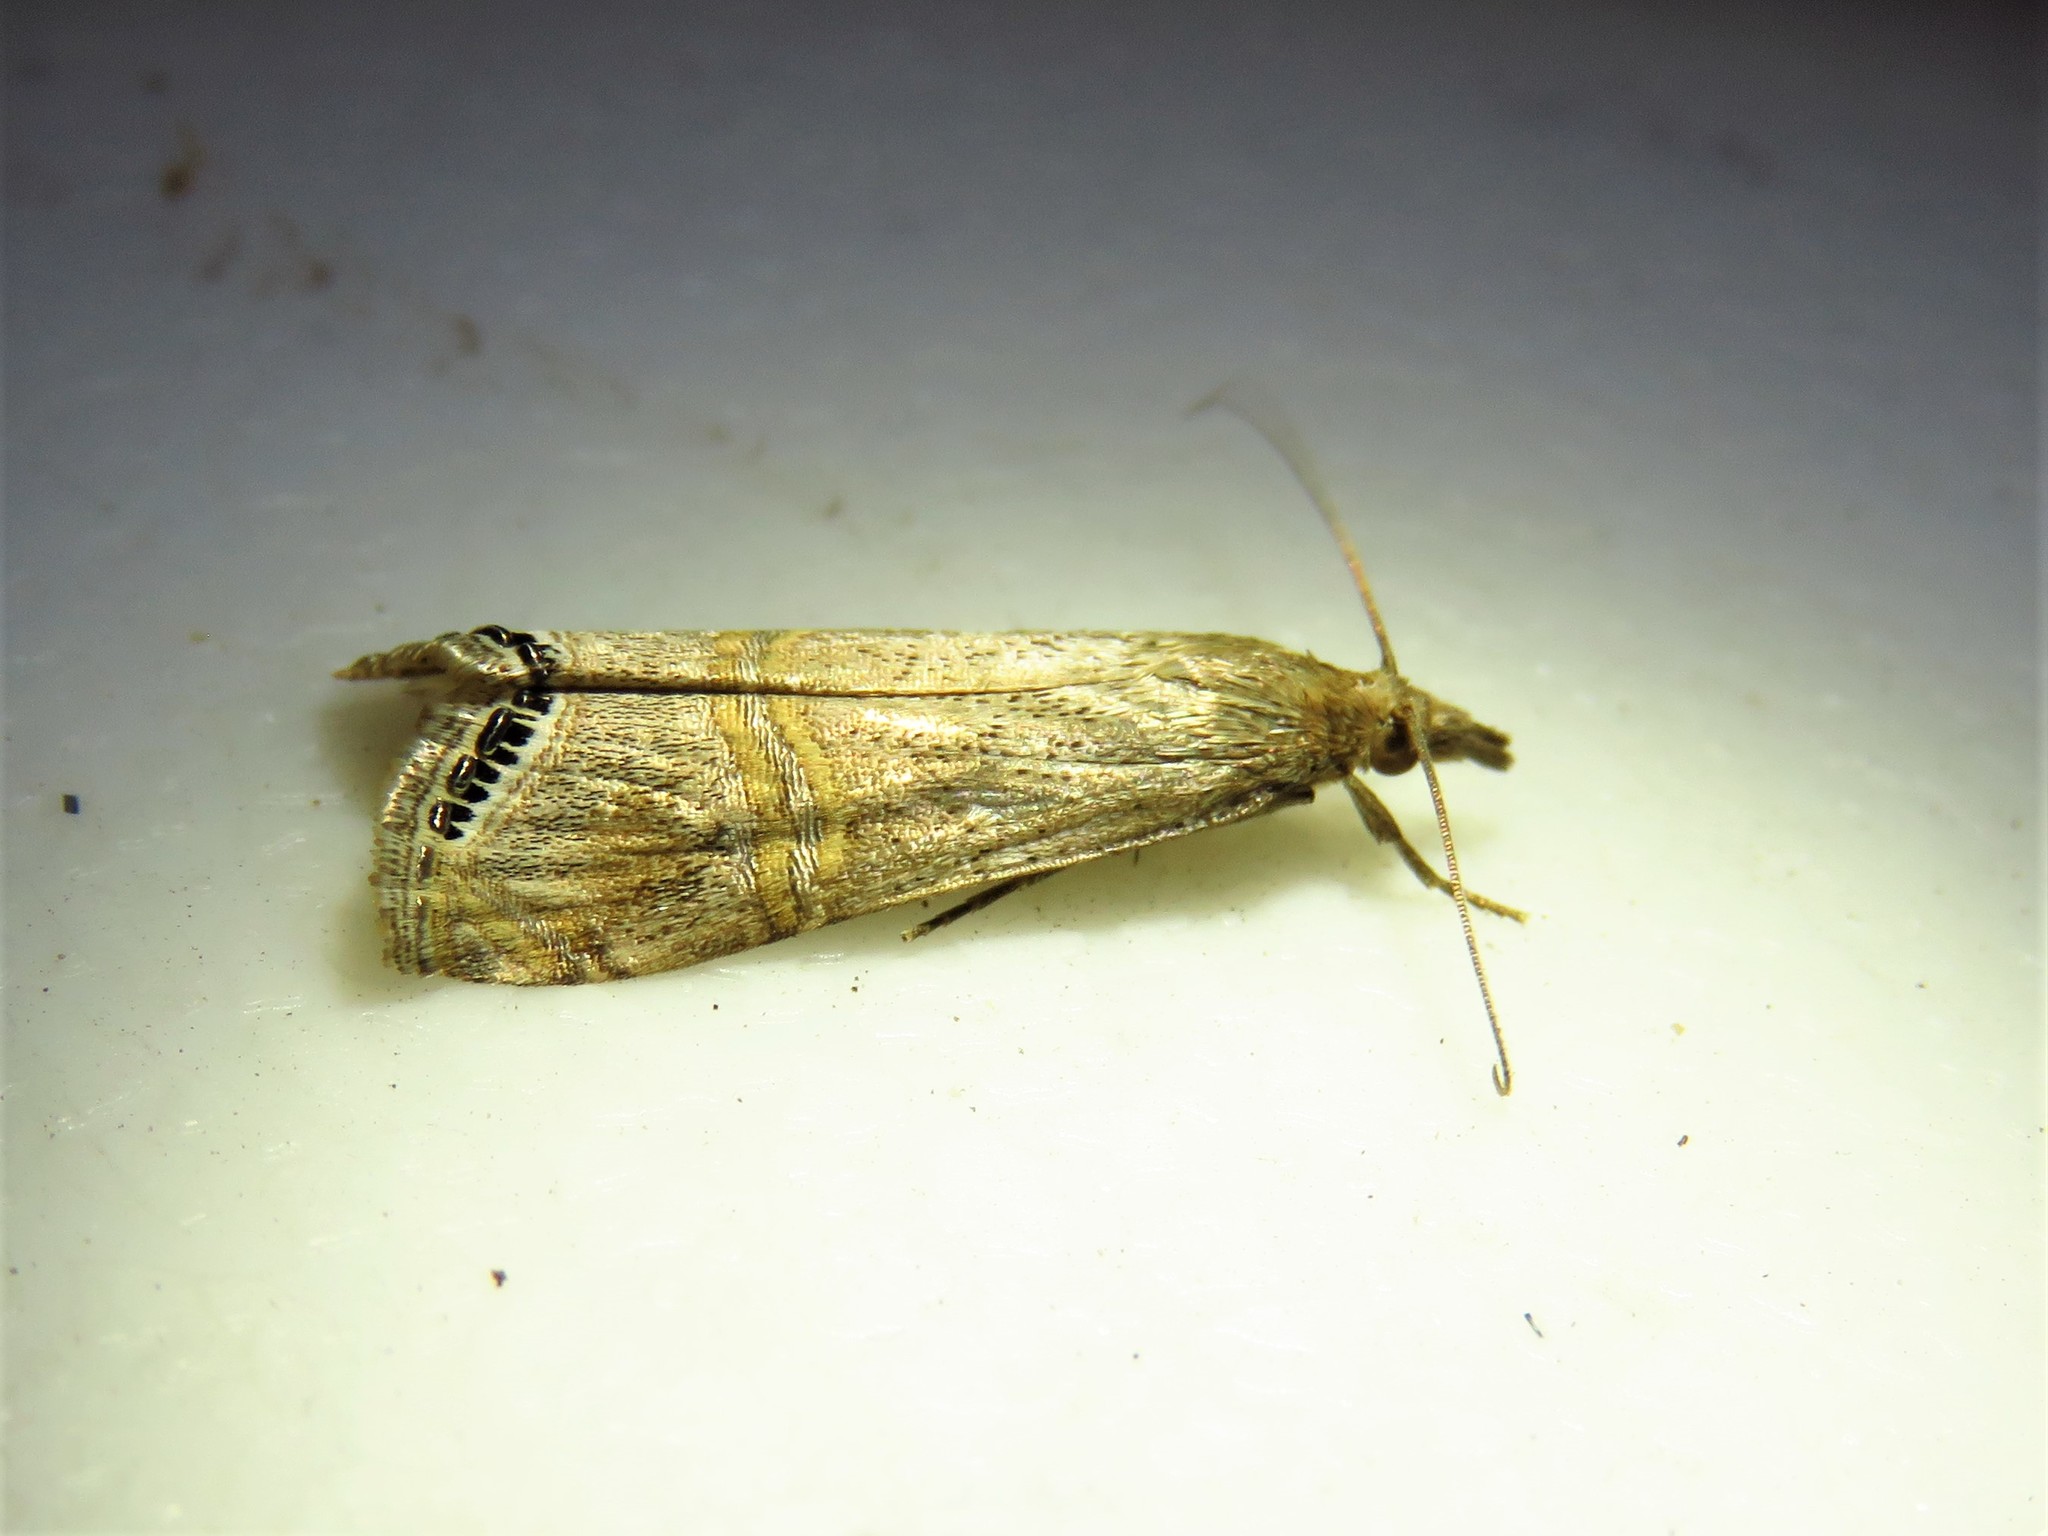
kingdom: Animalia
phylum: Arthropoda
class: Insecta
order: Lepidoptera
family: Crambidae
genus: Euchromius
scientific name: Euchromius ocellea
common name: Necklace veneer moth
